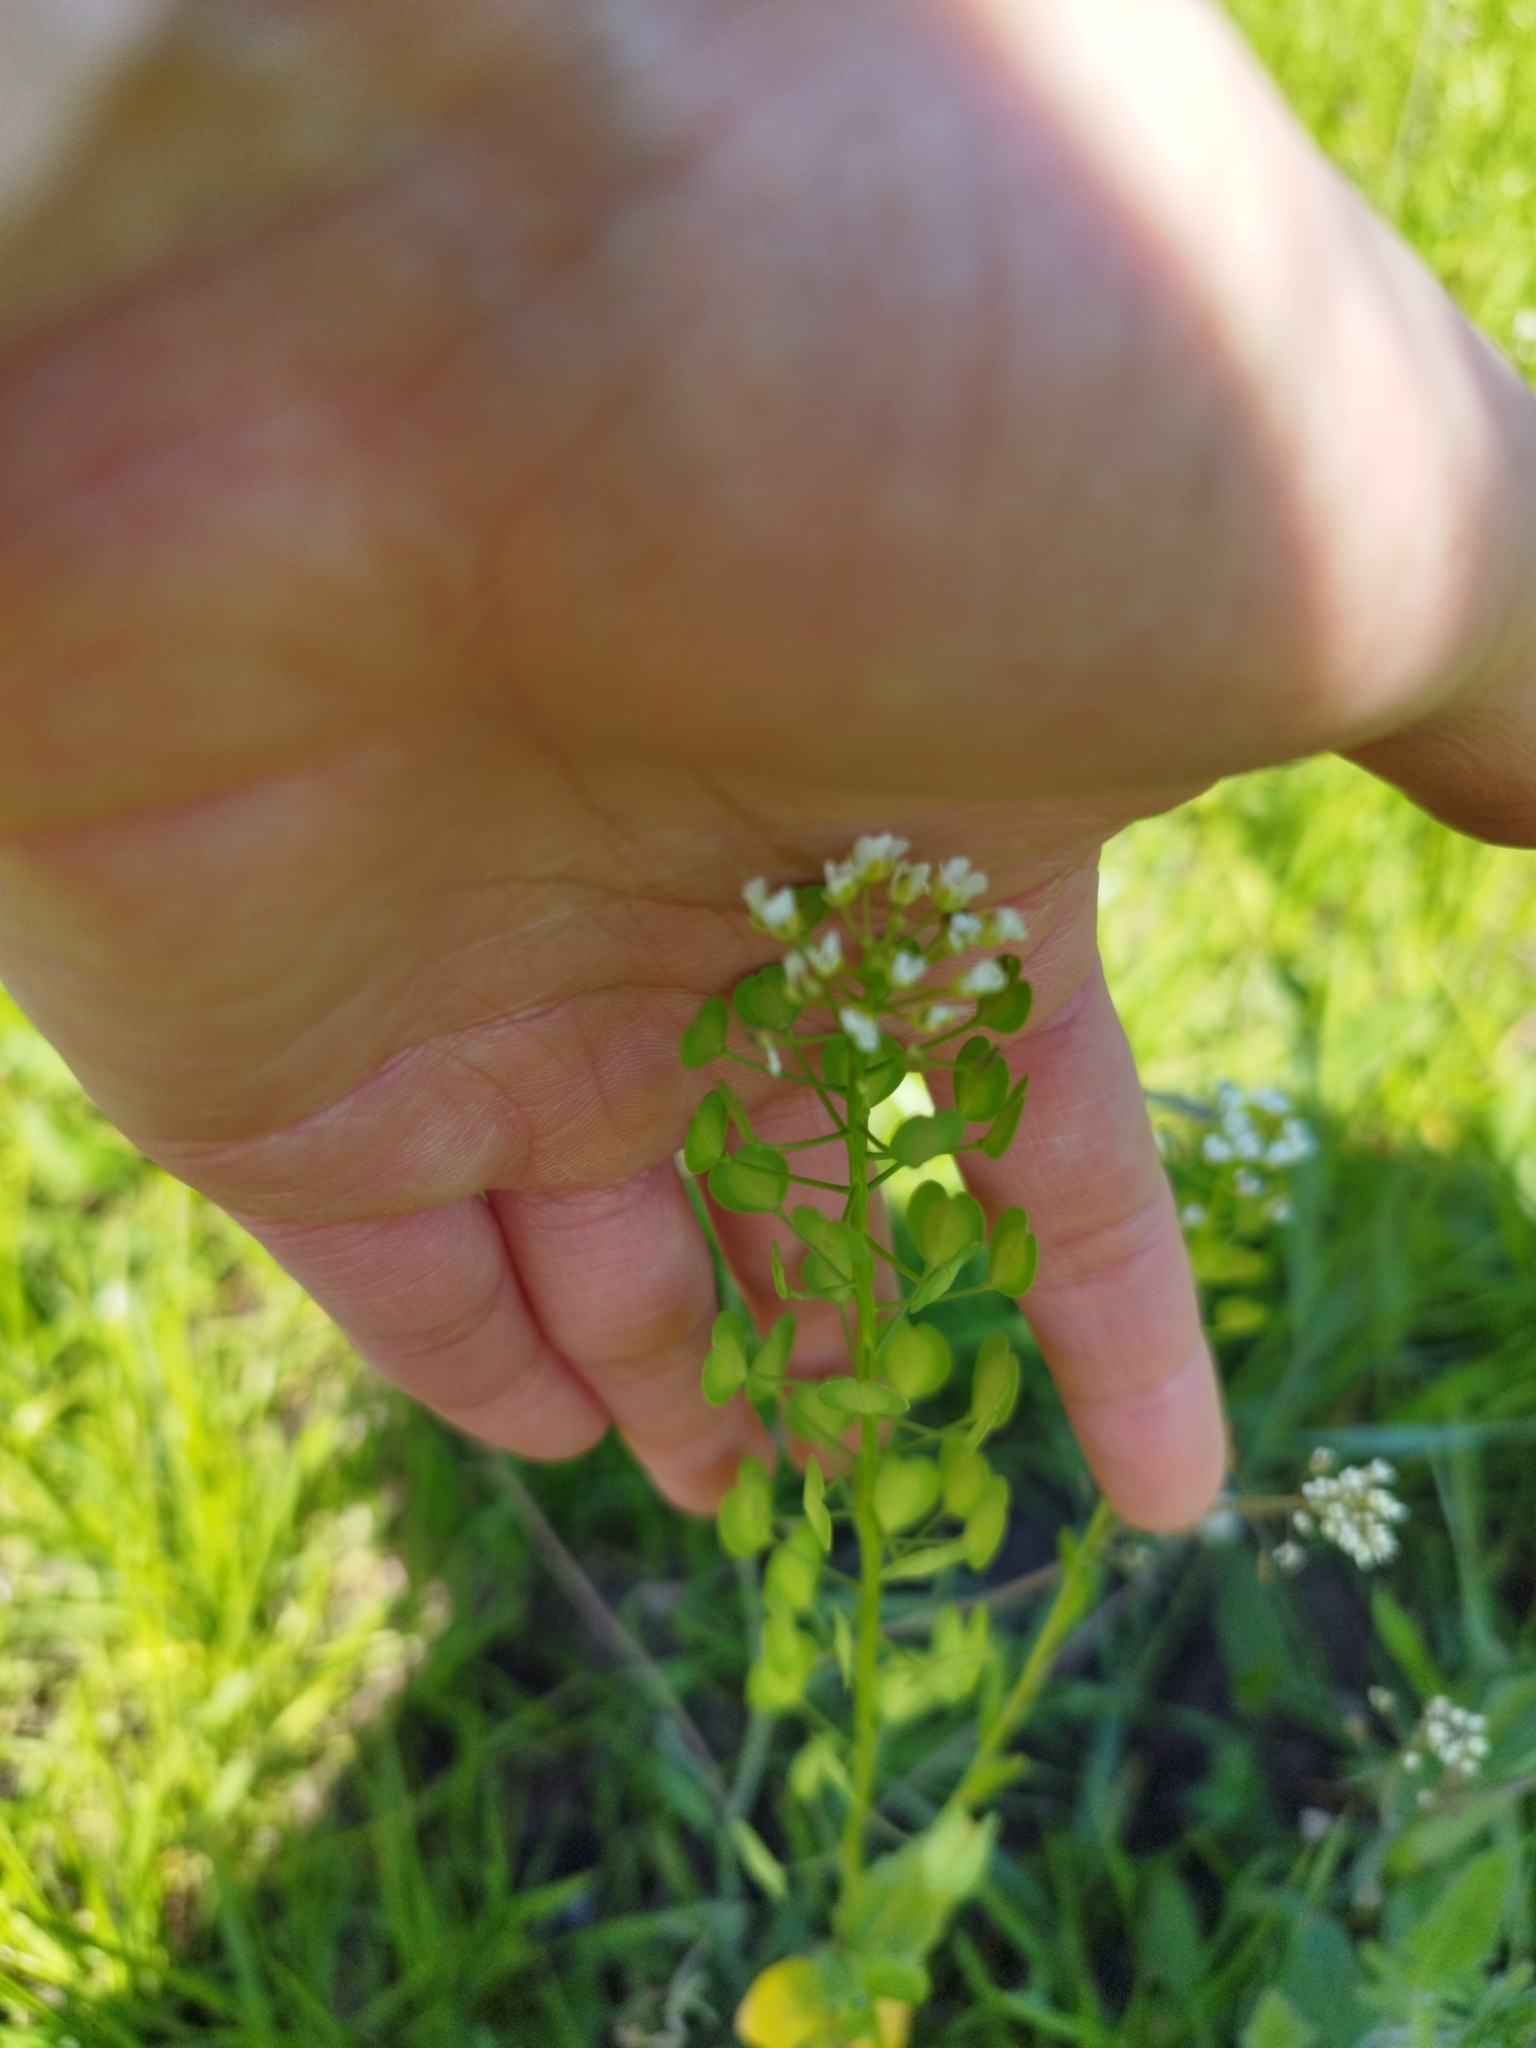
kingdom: Plantae
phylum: Tracheophyta
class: Magnoliopsida
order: Brassicales
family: Brassicaceae
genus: Thlaspi
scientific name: Thlaspi arvense
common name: Field pennycress
